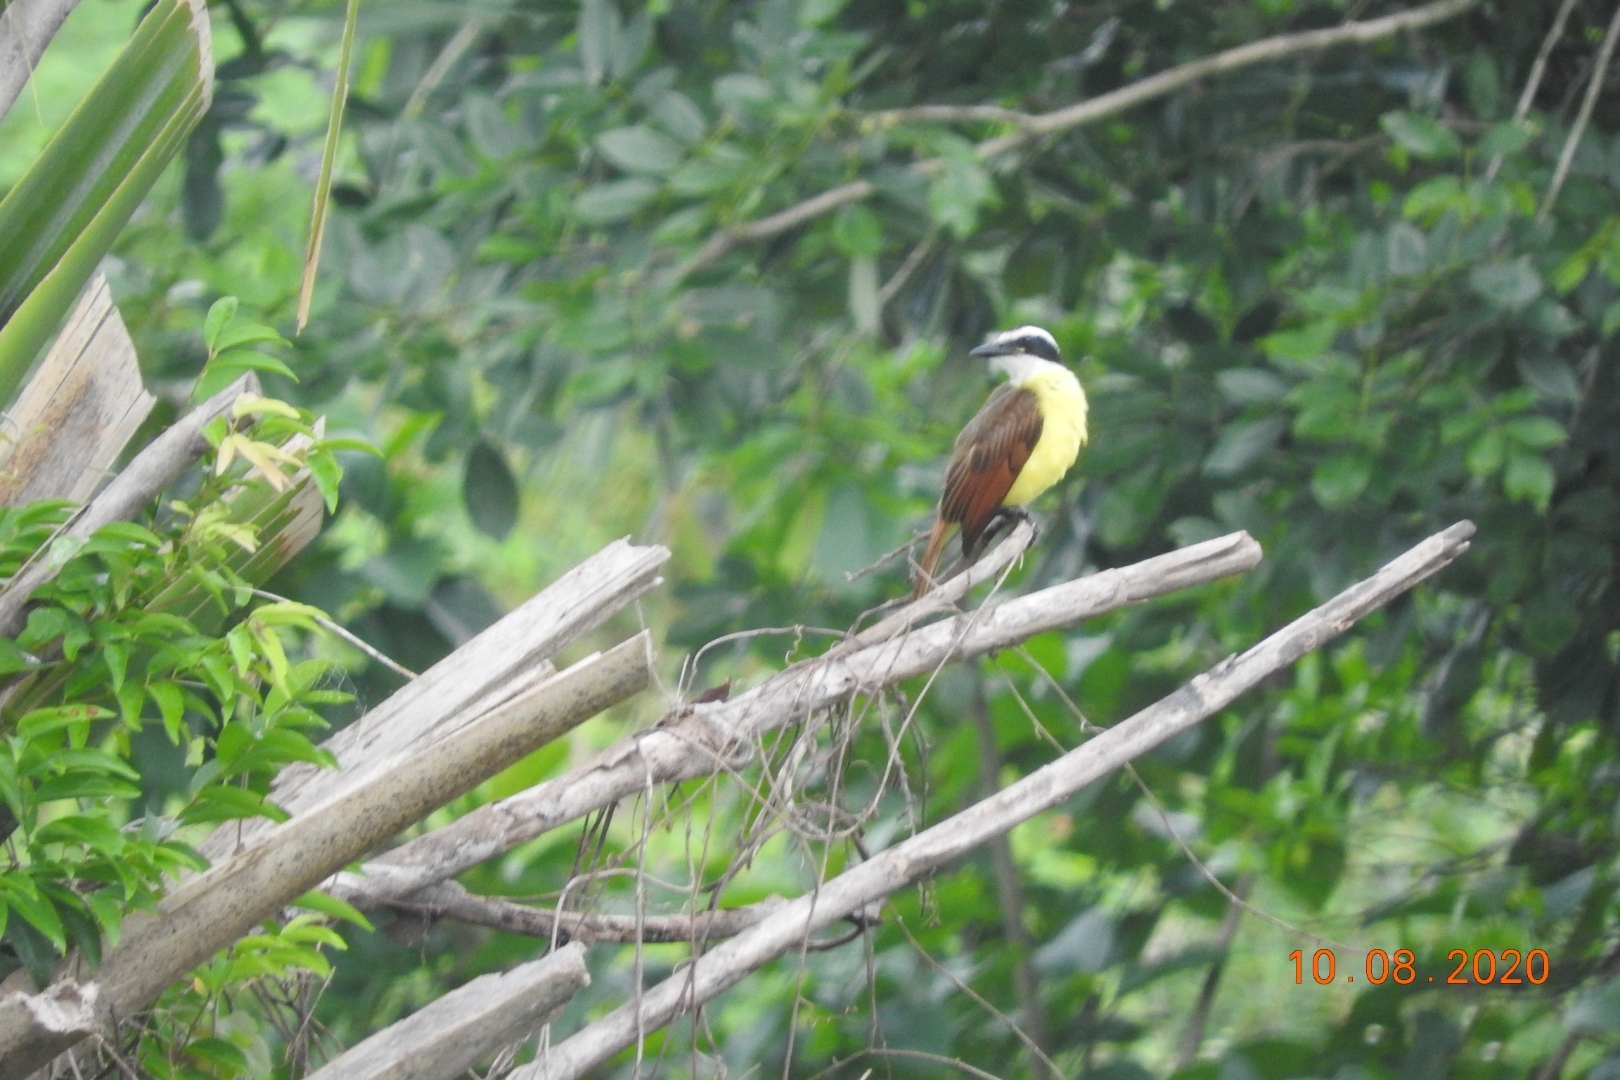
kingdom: Animalia
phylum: Chordata
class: Aves
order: Passeriformes
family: Tyrannidae
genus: Pitangus
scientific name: Pitangus sulphuratus
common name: Great kiskadee
